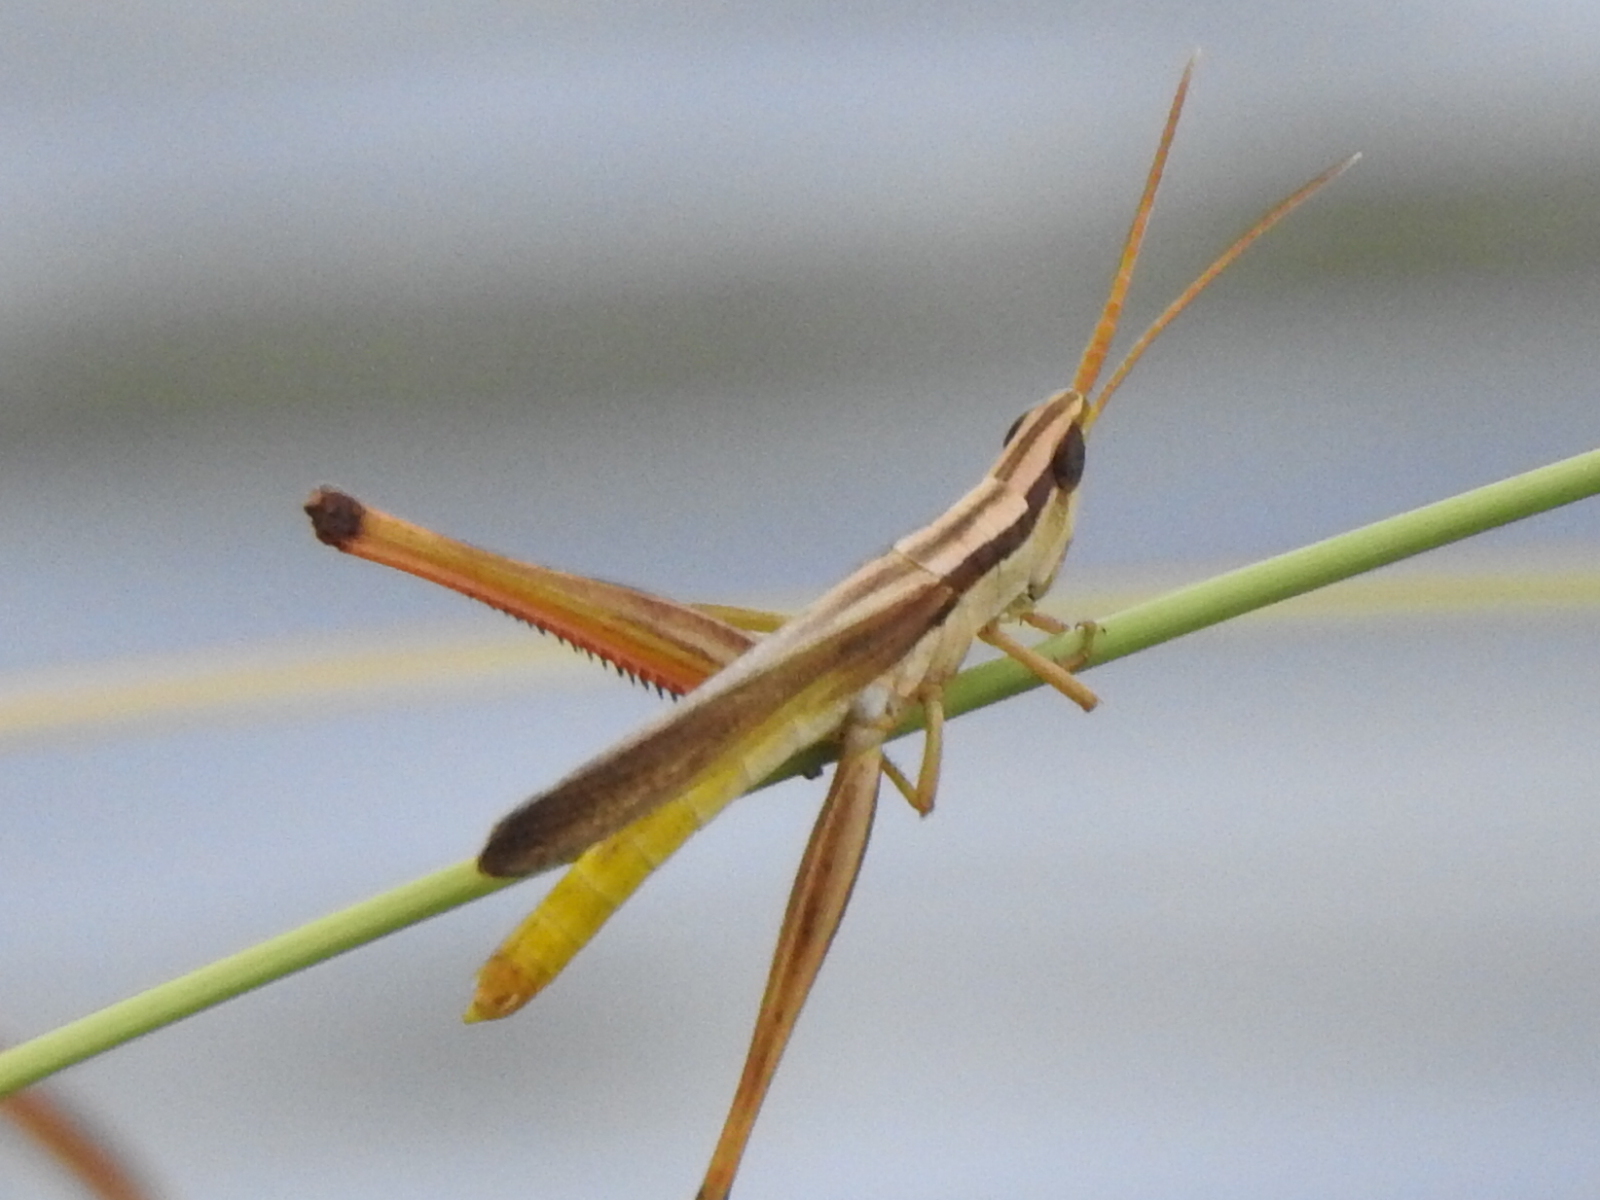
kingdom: Animalia
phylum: Arthropoda
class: Insecta
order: Orthoptera
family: Acrididae
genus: Mermiria
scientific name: Mermiria bivittata
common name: Two-striped mermiria grasshopper
